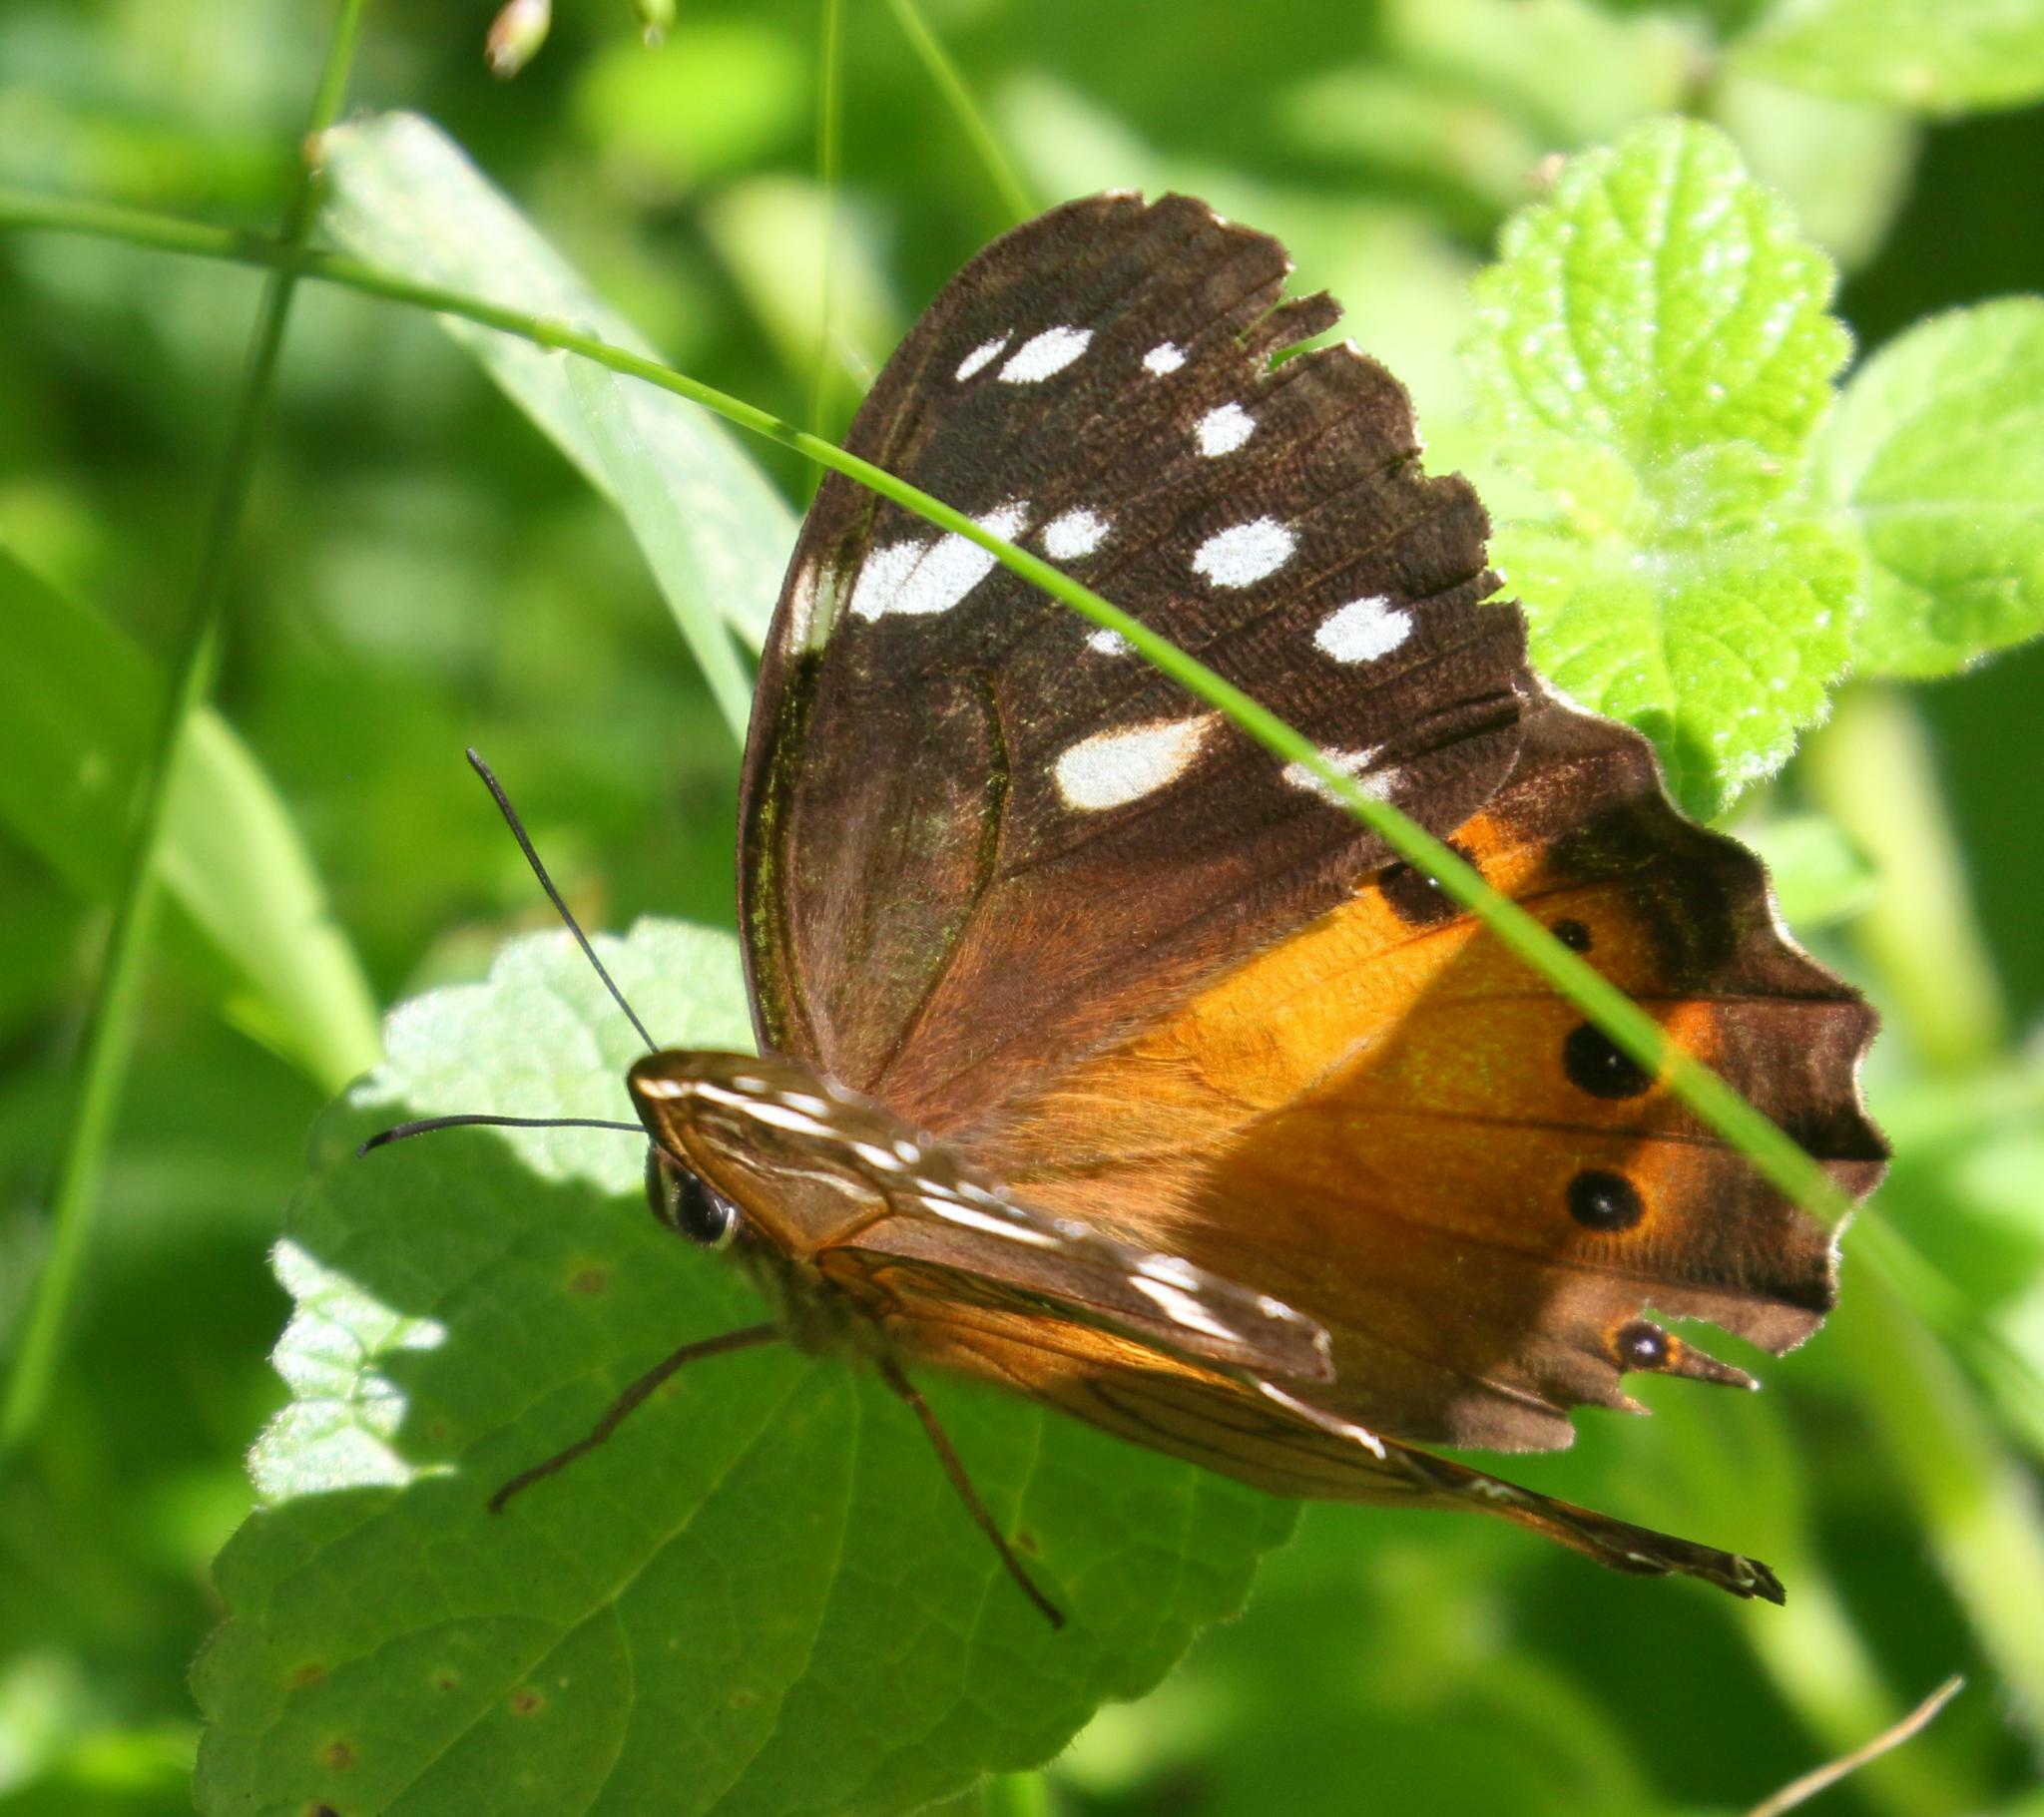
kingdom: Animalia
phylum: Arthropoda
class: Insecta
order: Lepidoptera
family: Nymphalidae
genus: Paralethe
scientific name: Paralethe dendrophilus
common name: Bush beauty
